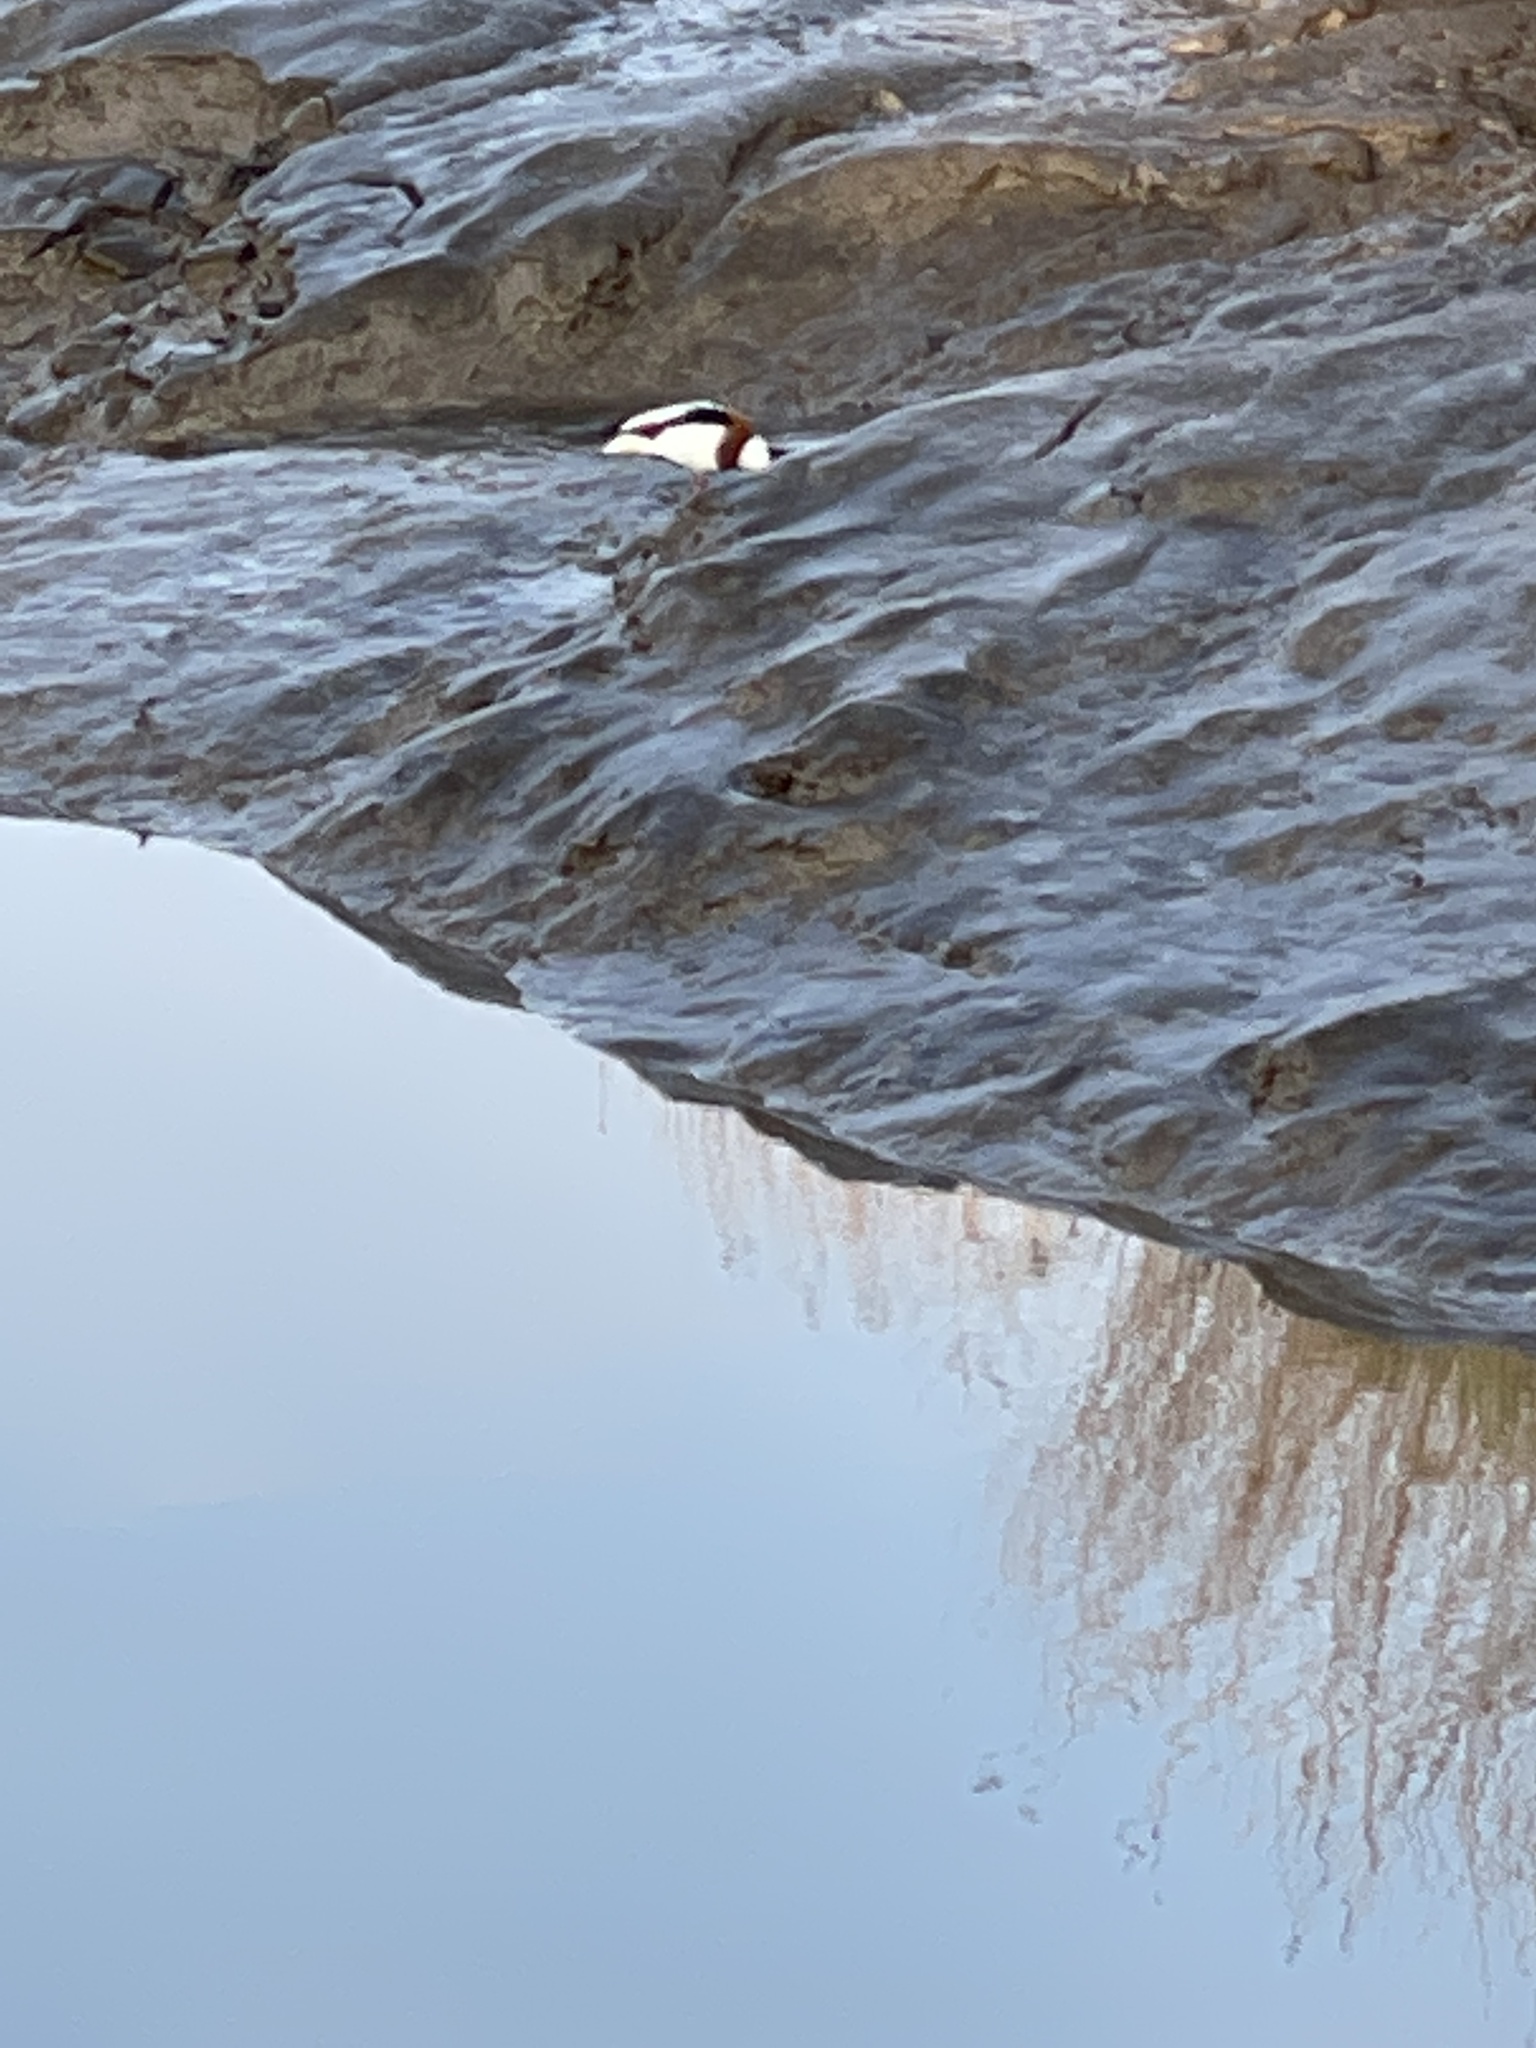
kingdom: Animalia
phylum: Chordata
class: Aves
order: Anseriformes
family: Anatidae
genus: Tadorna
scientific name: Tadorna tadorna
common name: Common shelduck
